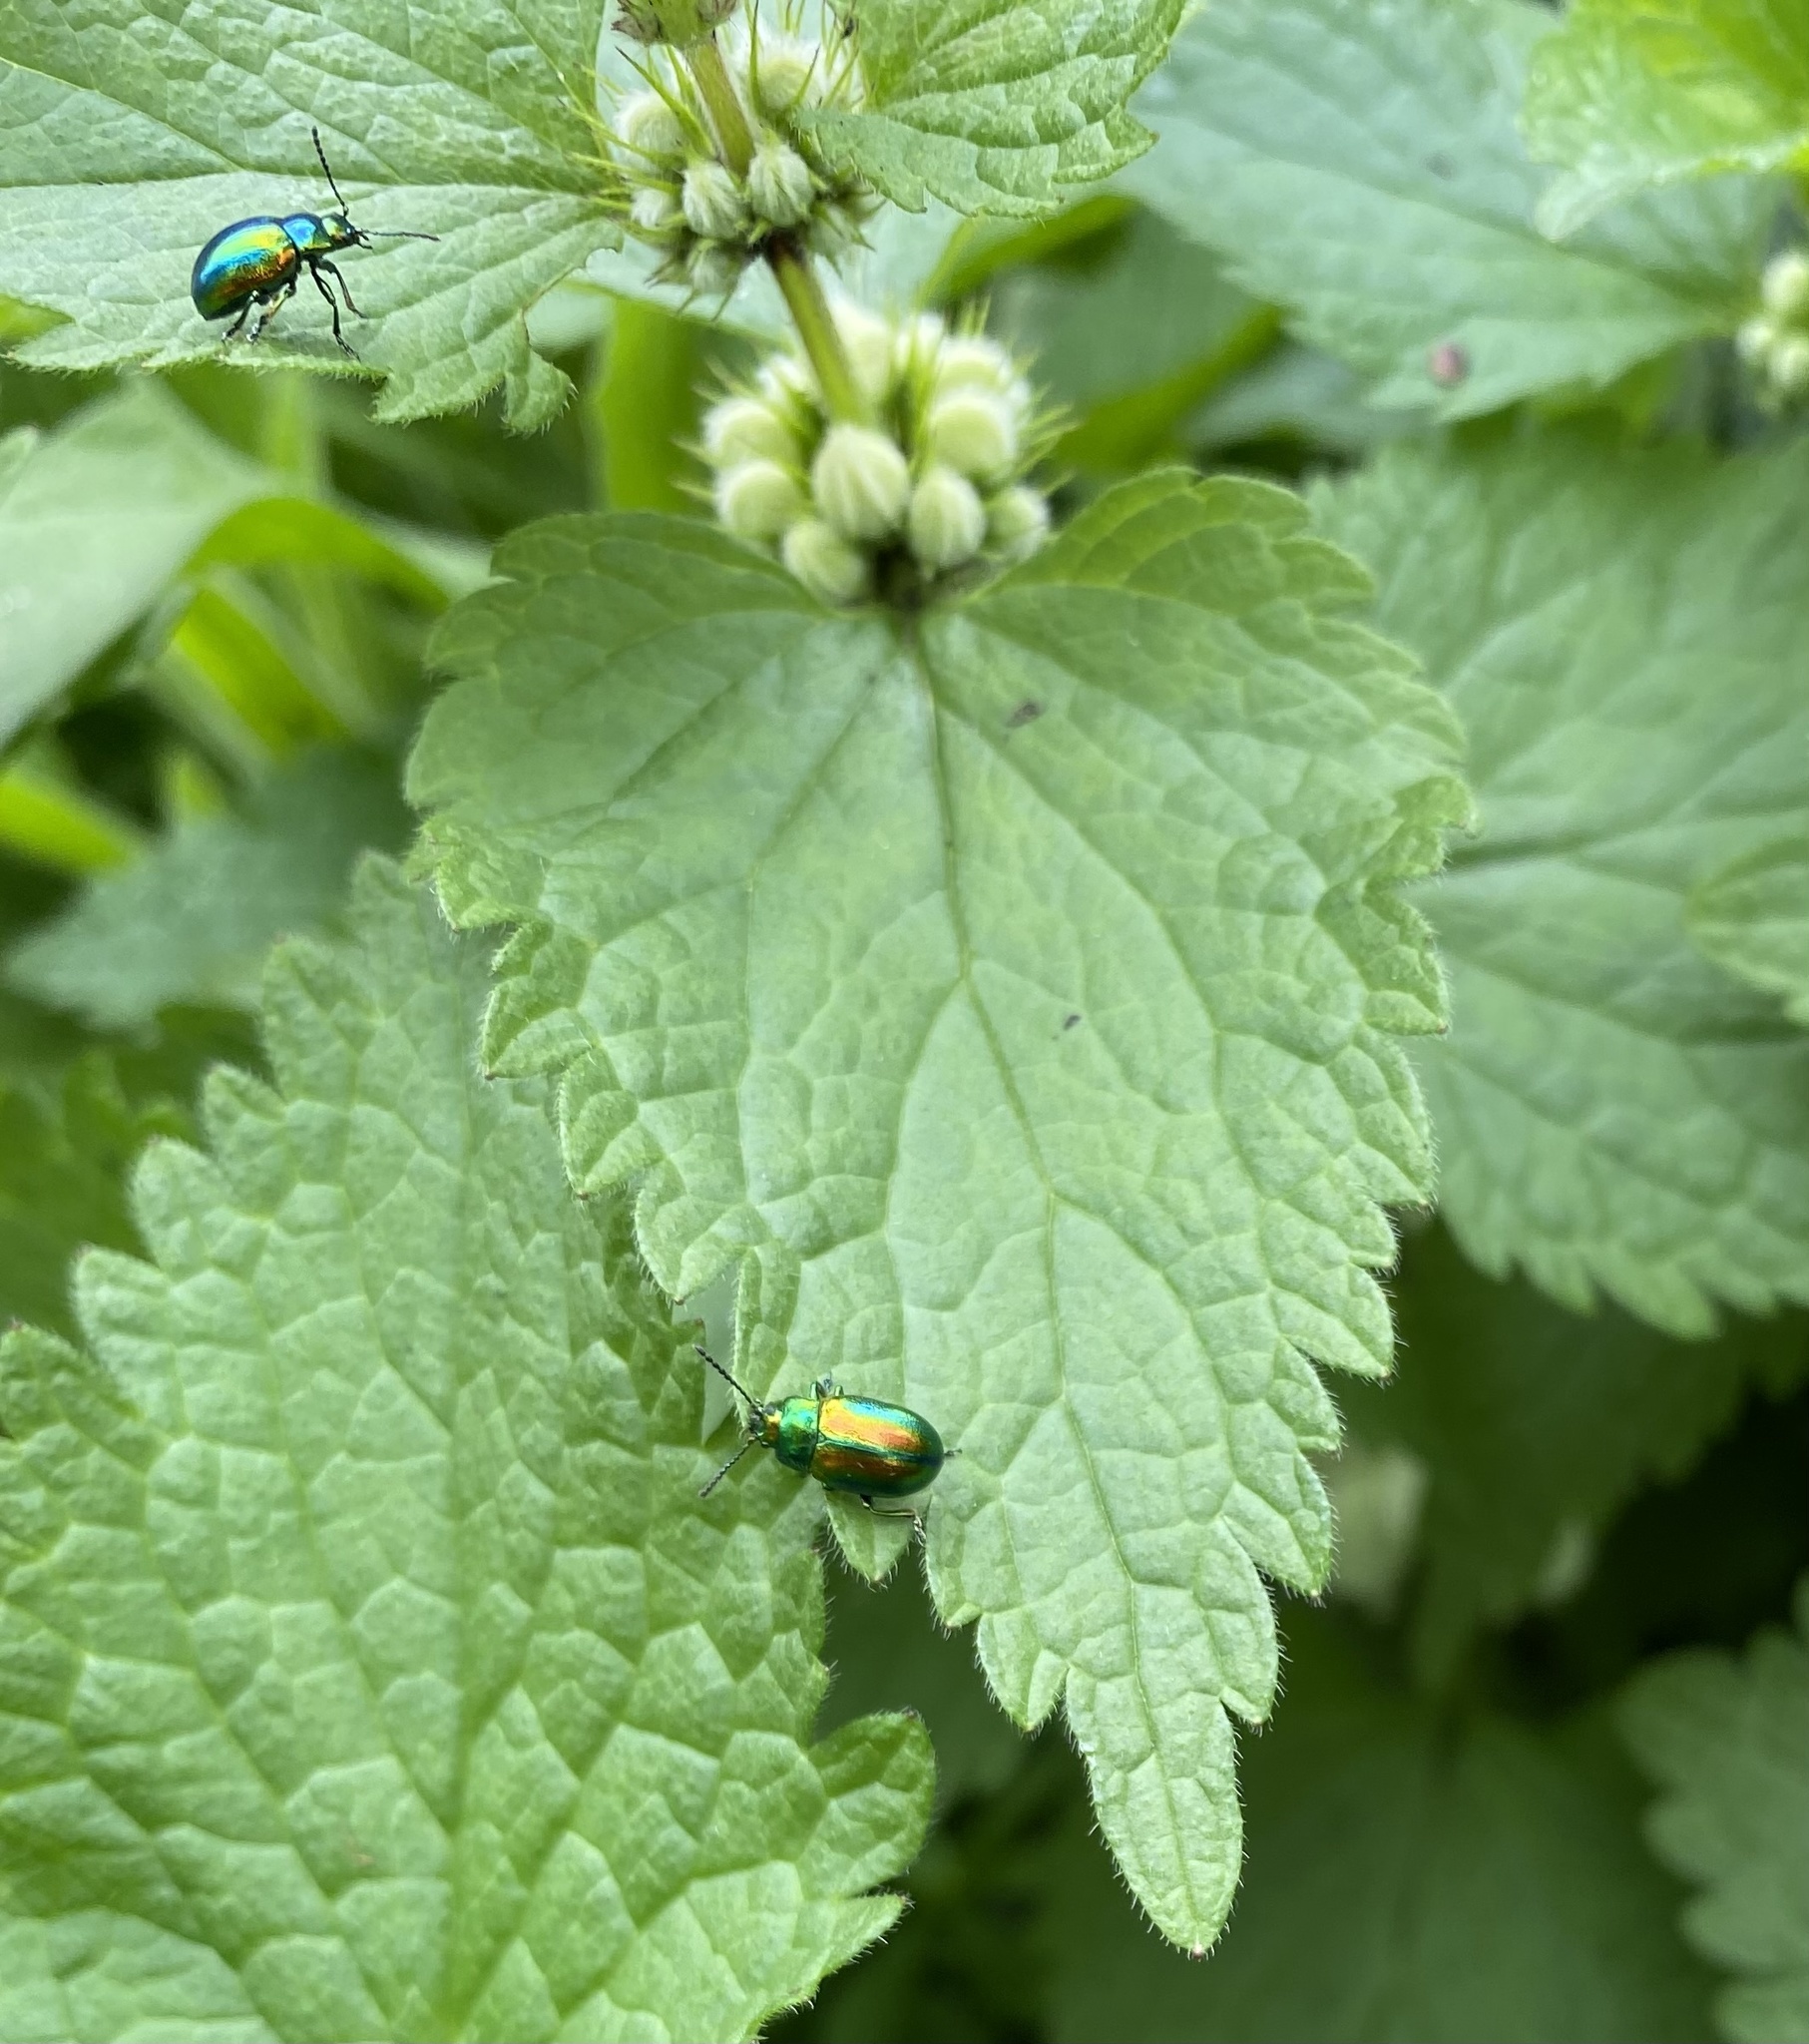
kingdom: Animalia
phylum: Arthropoda
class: Insecta
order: Coleoptera
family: Chrysomelidae
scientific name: Chrysomelidae
